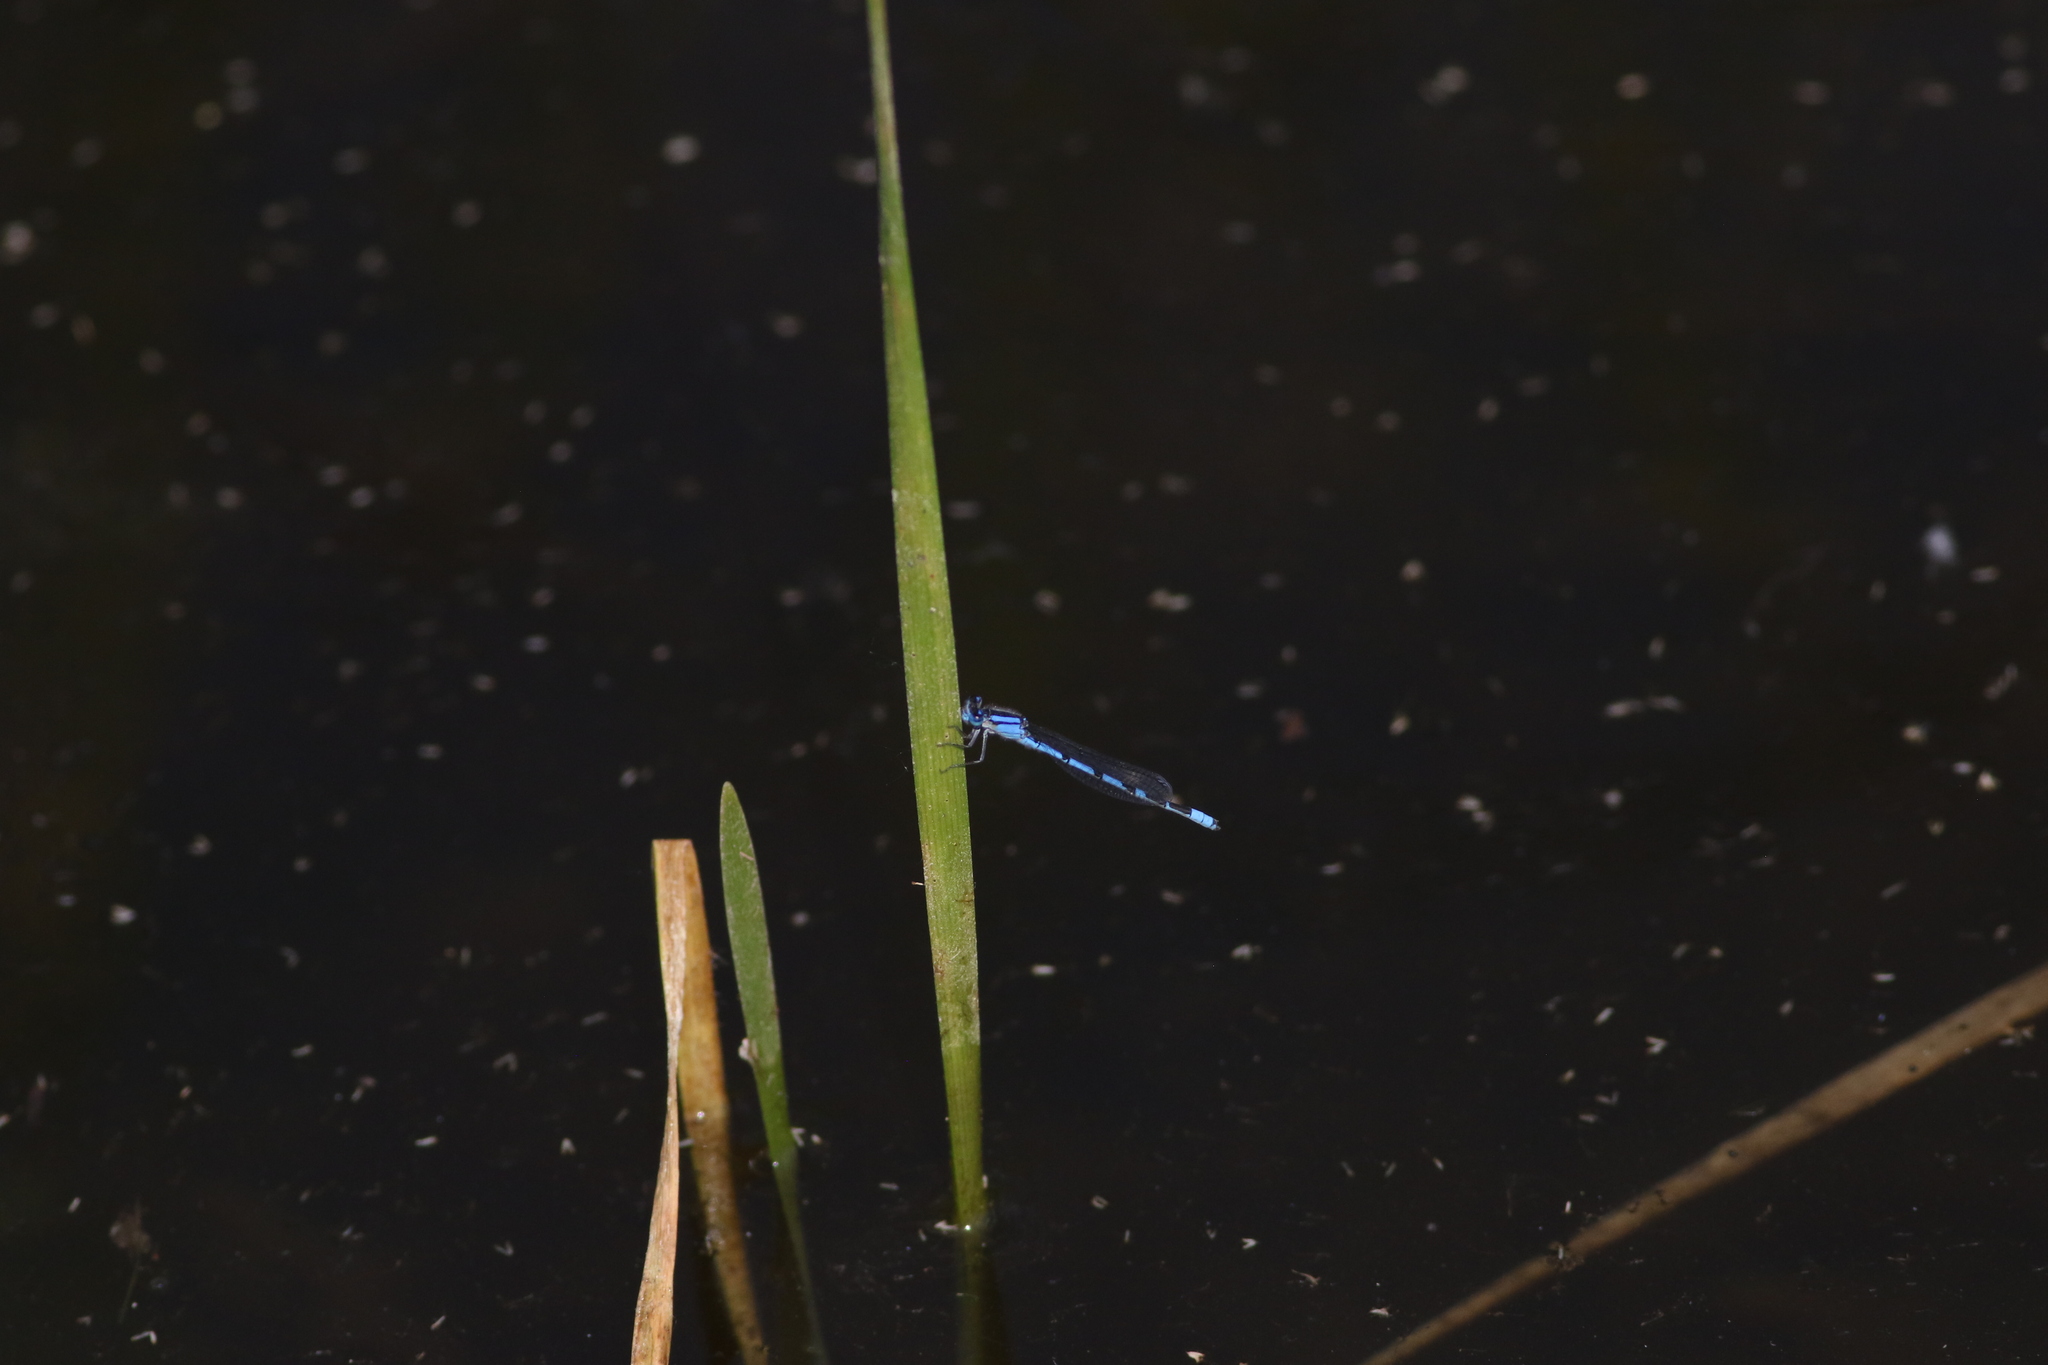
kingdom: Animalia
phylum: Arthropoda
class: Insecta
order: Odonata
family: Coenagrionidae
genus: Enallagma
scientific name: Enallagma civile
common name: Damselfly
